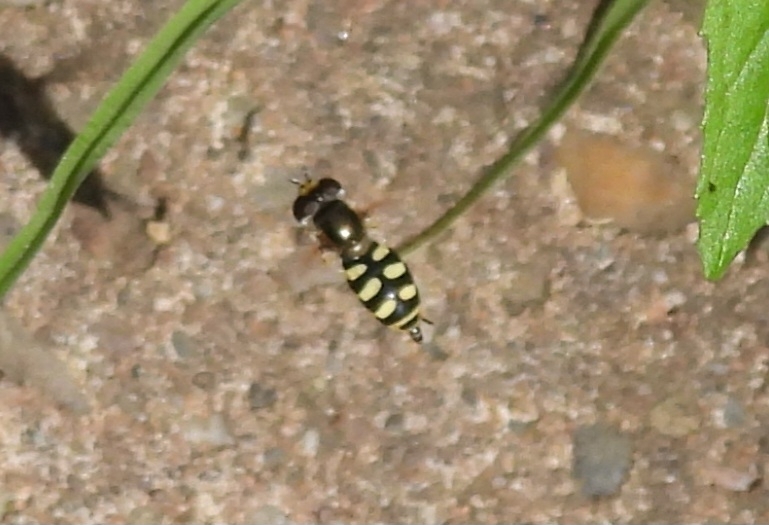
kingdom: Animalia
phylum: Arthropoda
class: Insecta
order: Diptera
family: Syrphidae
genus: Eupeodes
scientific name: Eupeodes
